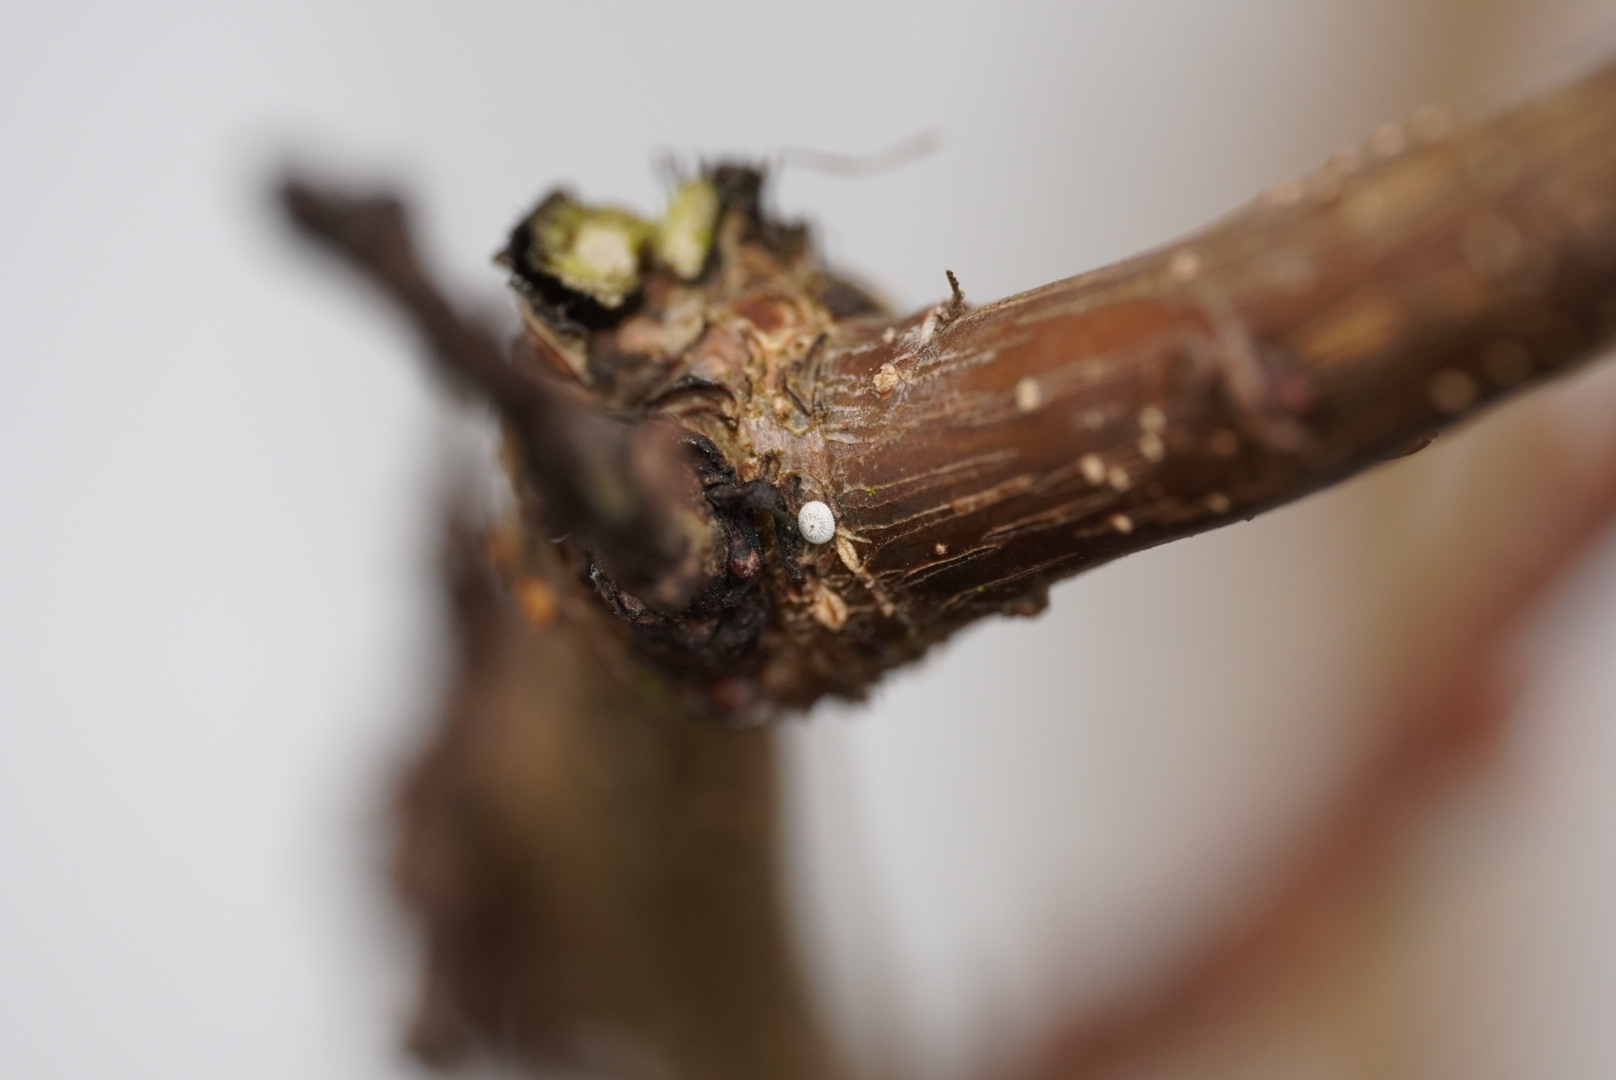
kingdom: Animalia
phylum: Arthropoda
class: Insecta
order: Lepidoptera
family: Lycaenidae
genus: Thecla
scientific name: Thecla betulae
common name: Brown hairstreak
